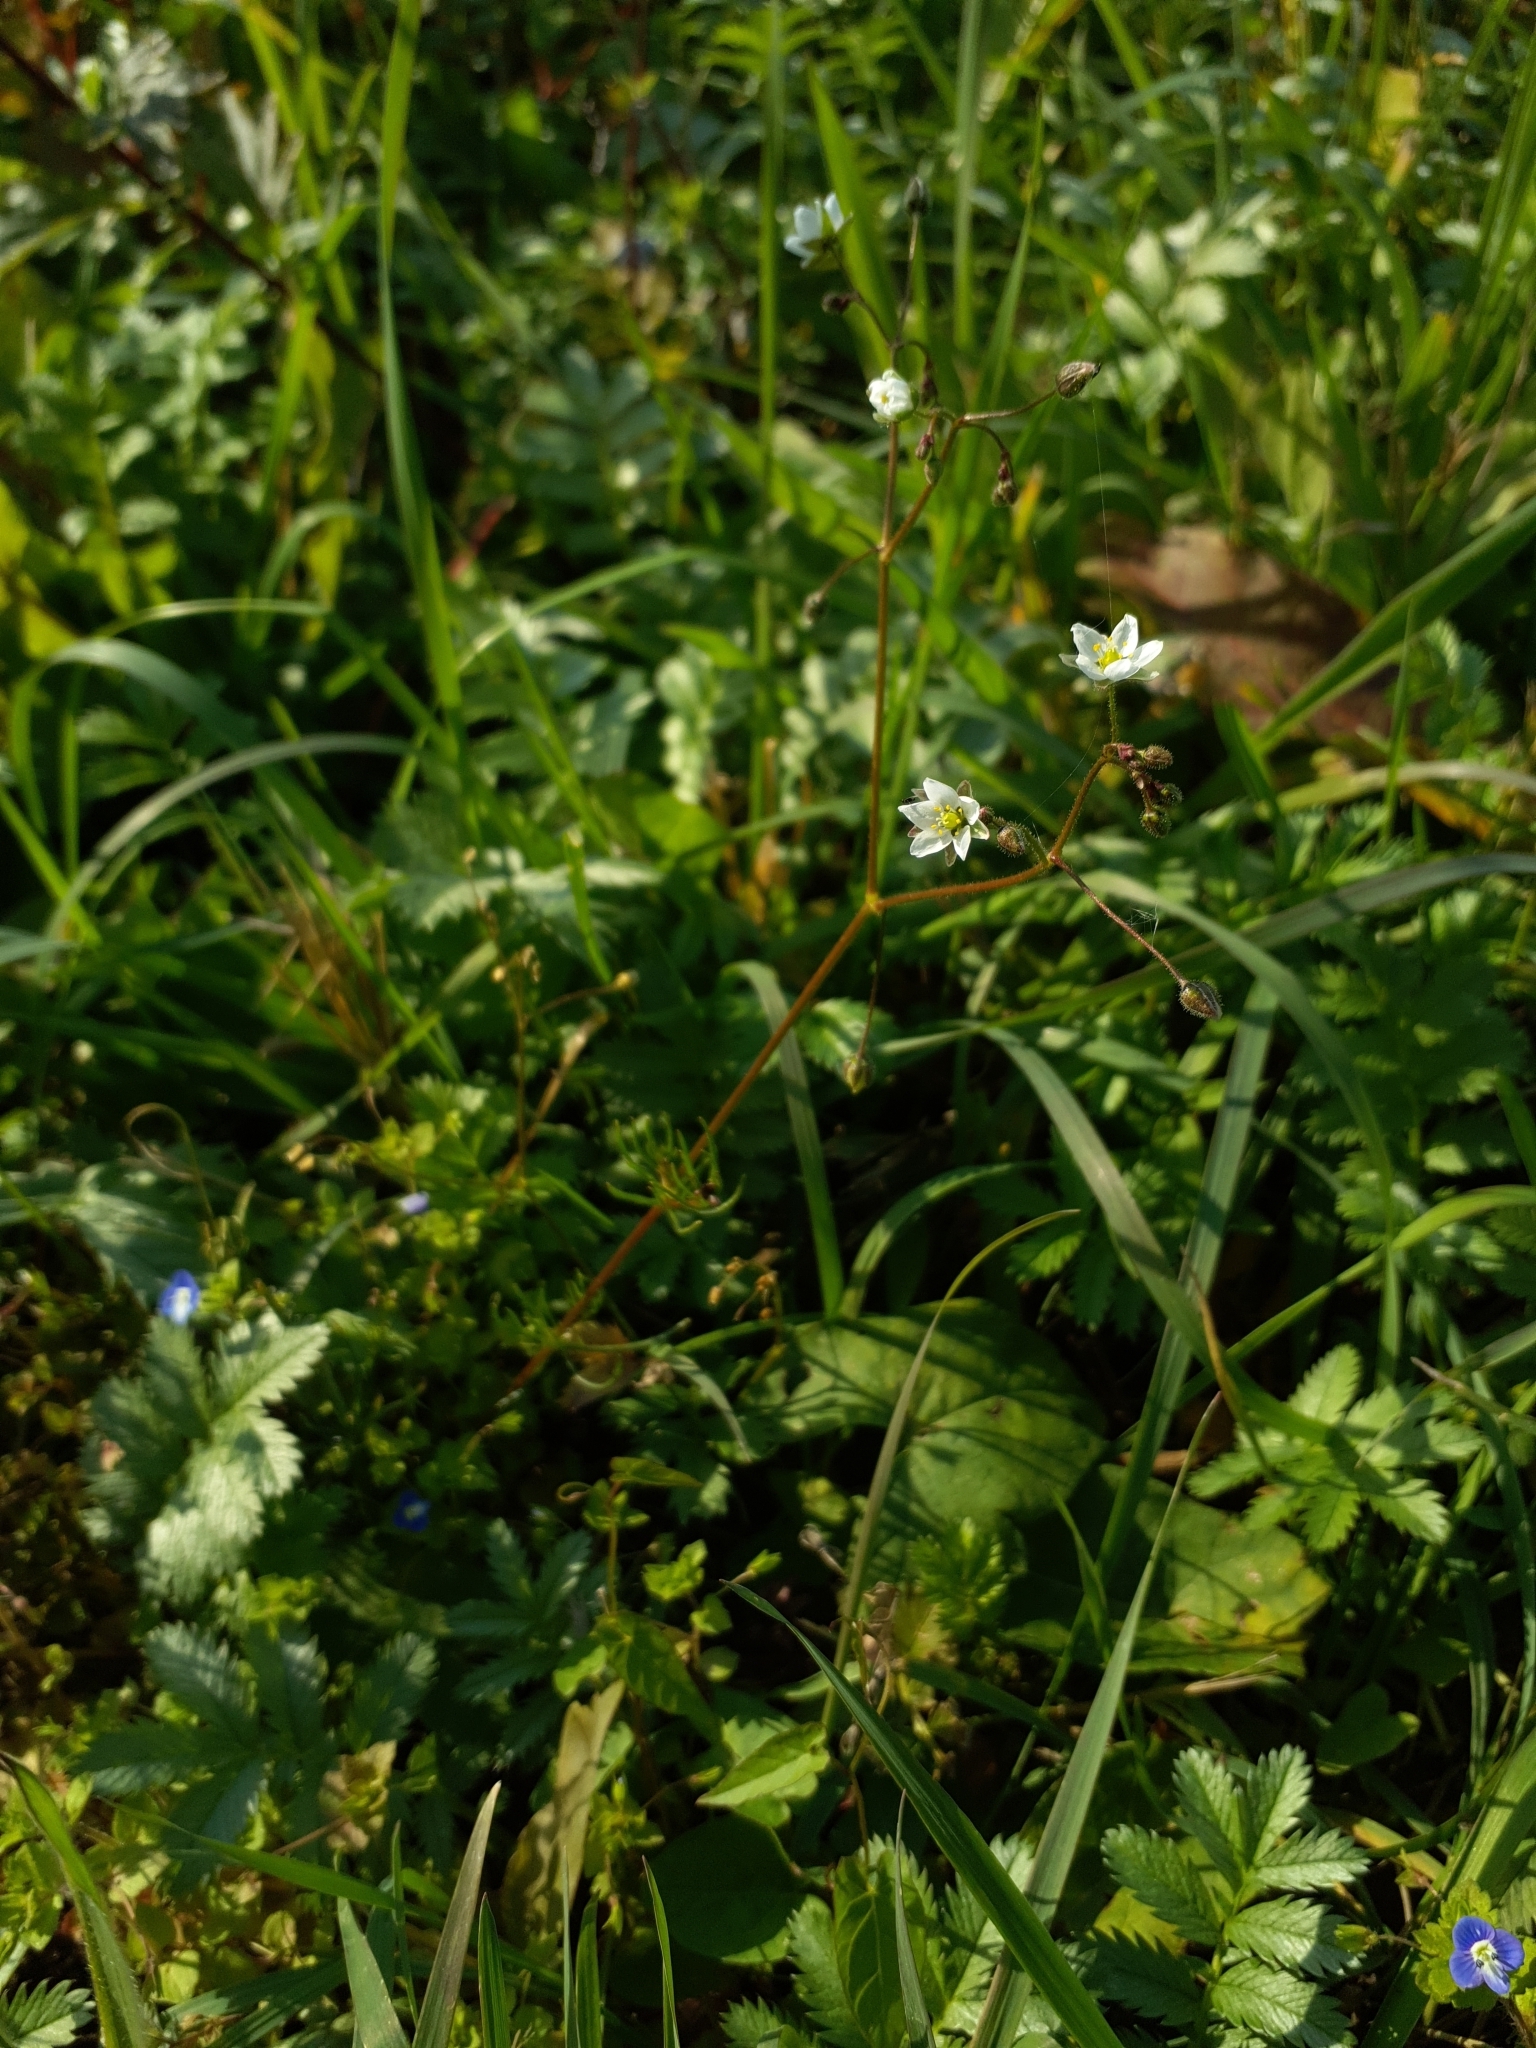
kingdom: Plantae
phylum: Tracheophyta
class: Magnoliopsida
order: Caryophyllales
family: Caryophyllaceae
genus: Spergula
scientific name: Spergula arvensis
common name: Corn spurrey
